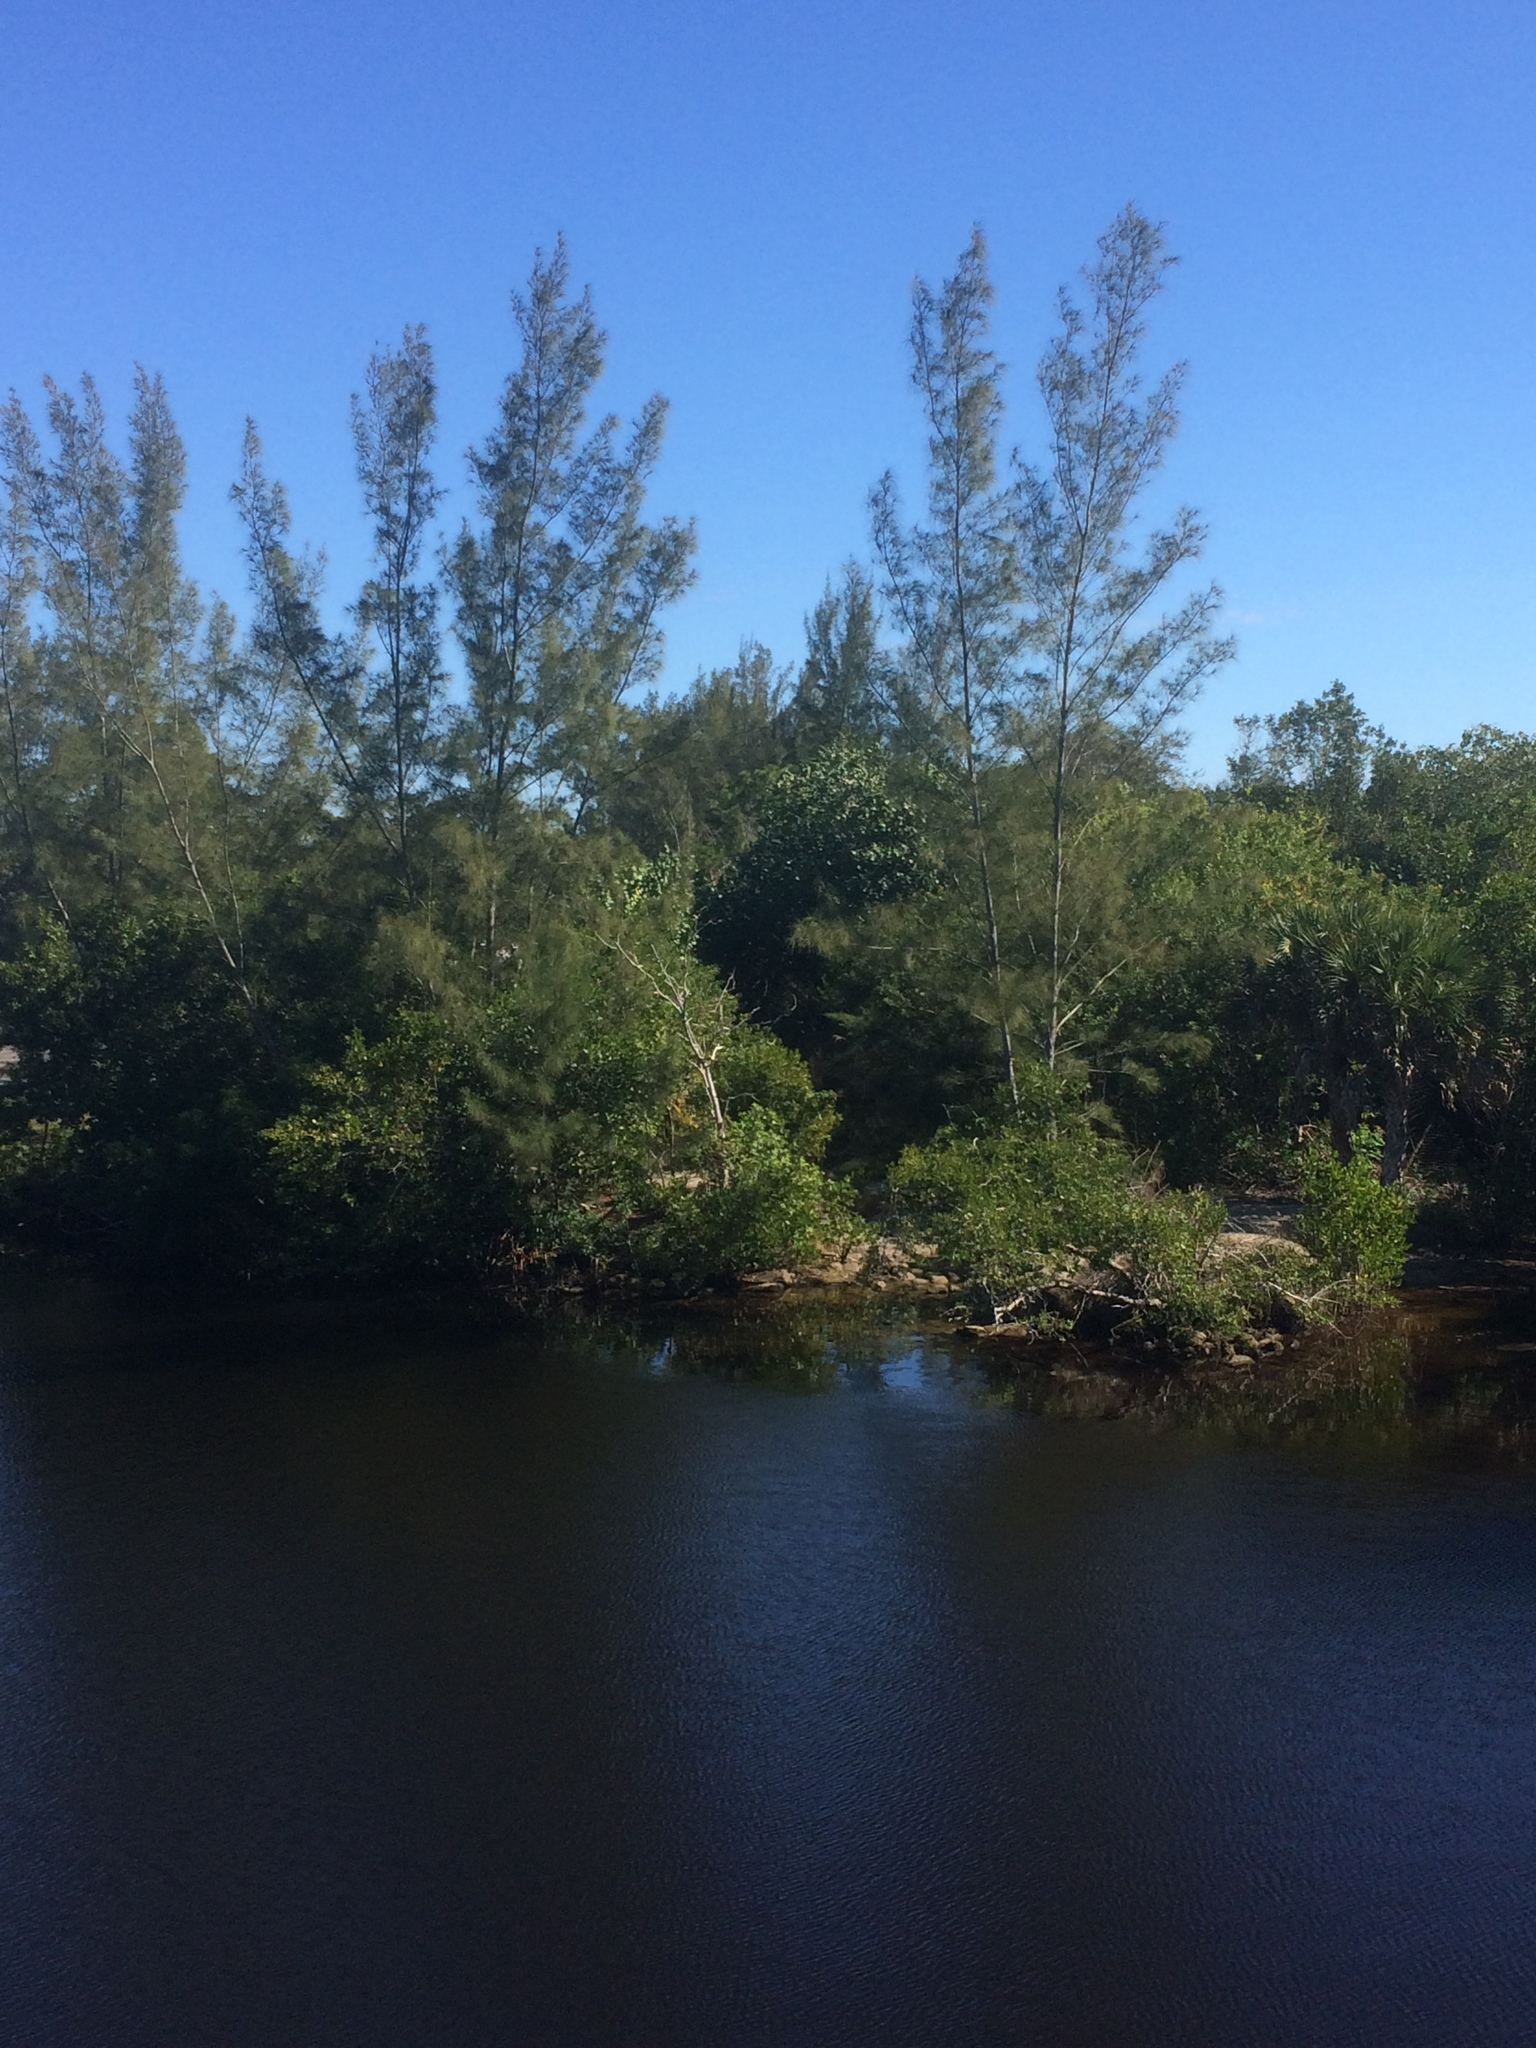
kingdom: Plantae
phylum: Tracheophyta
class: Magnoliopsida
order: Fagales
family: Casuarinaceae
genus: Casuarina
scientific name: Casuarina equisetifolia
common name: Beach sheoak
